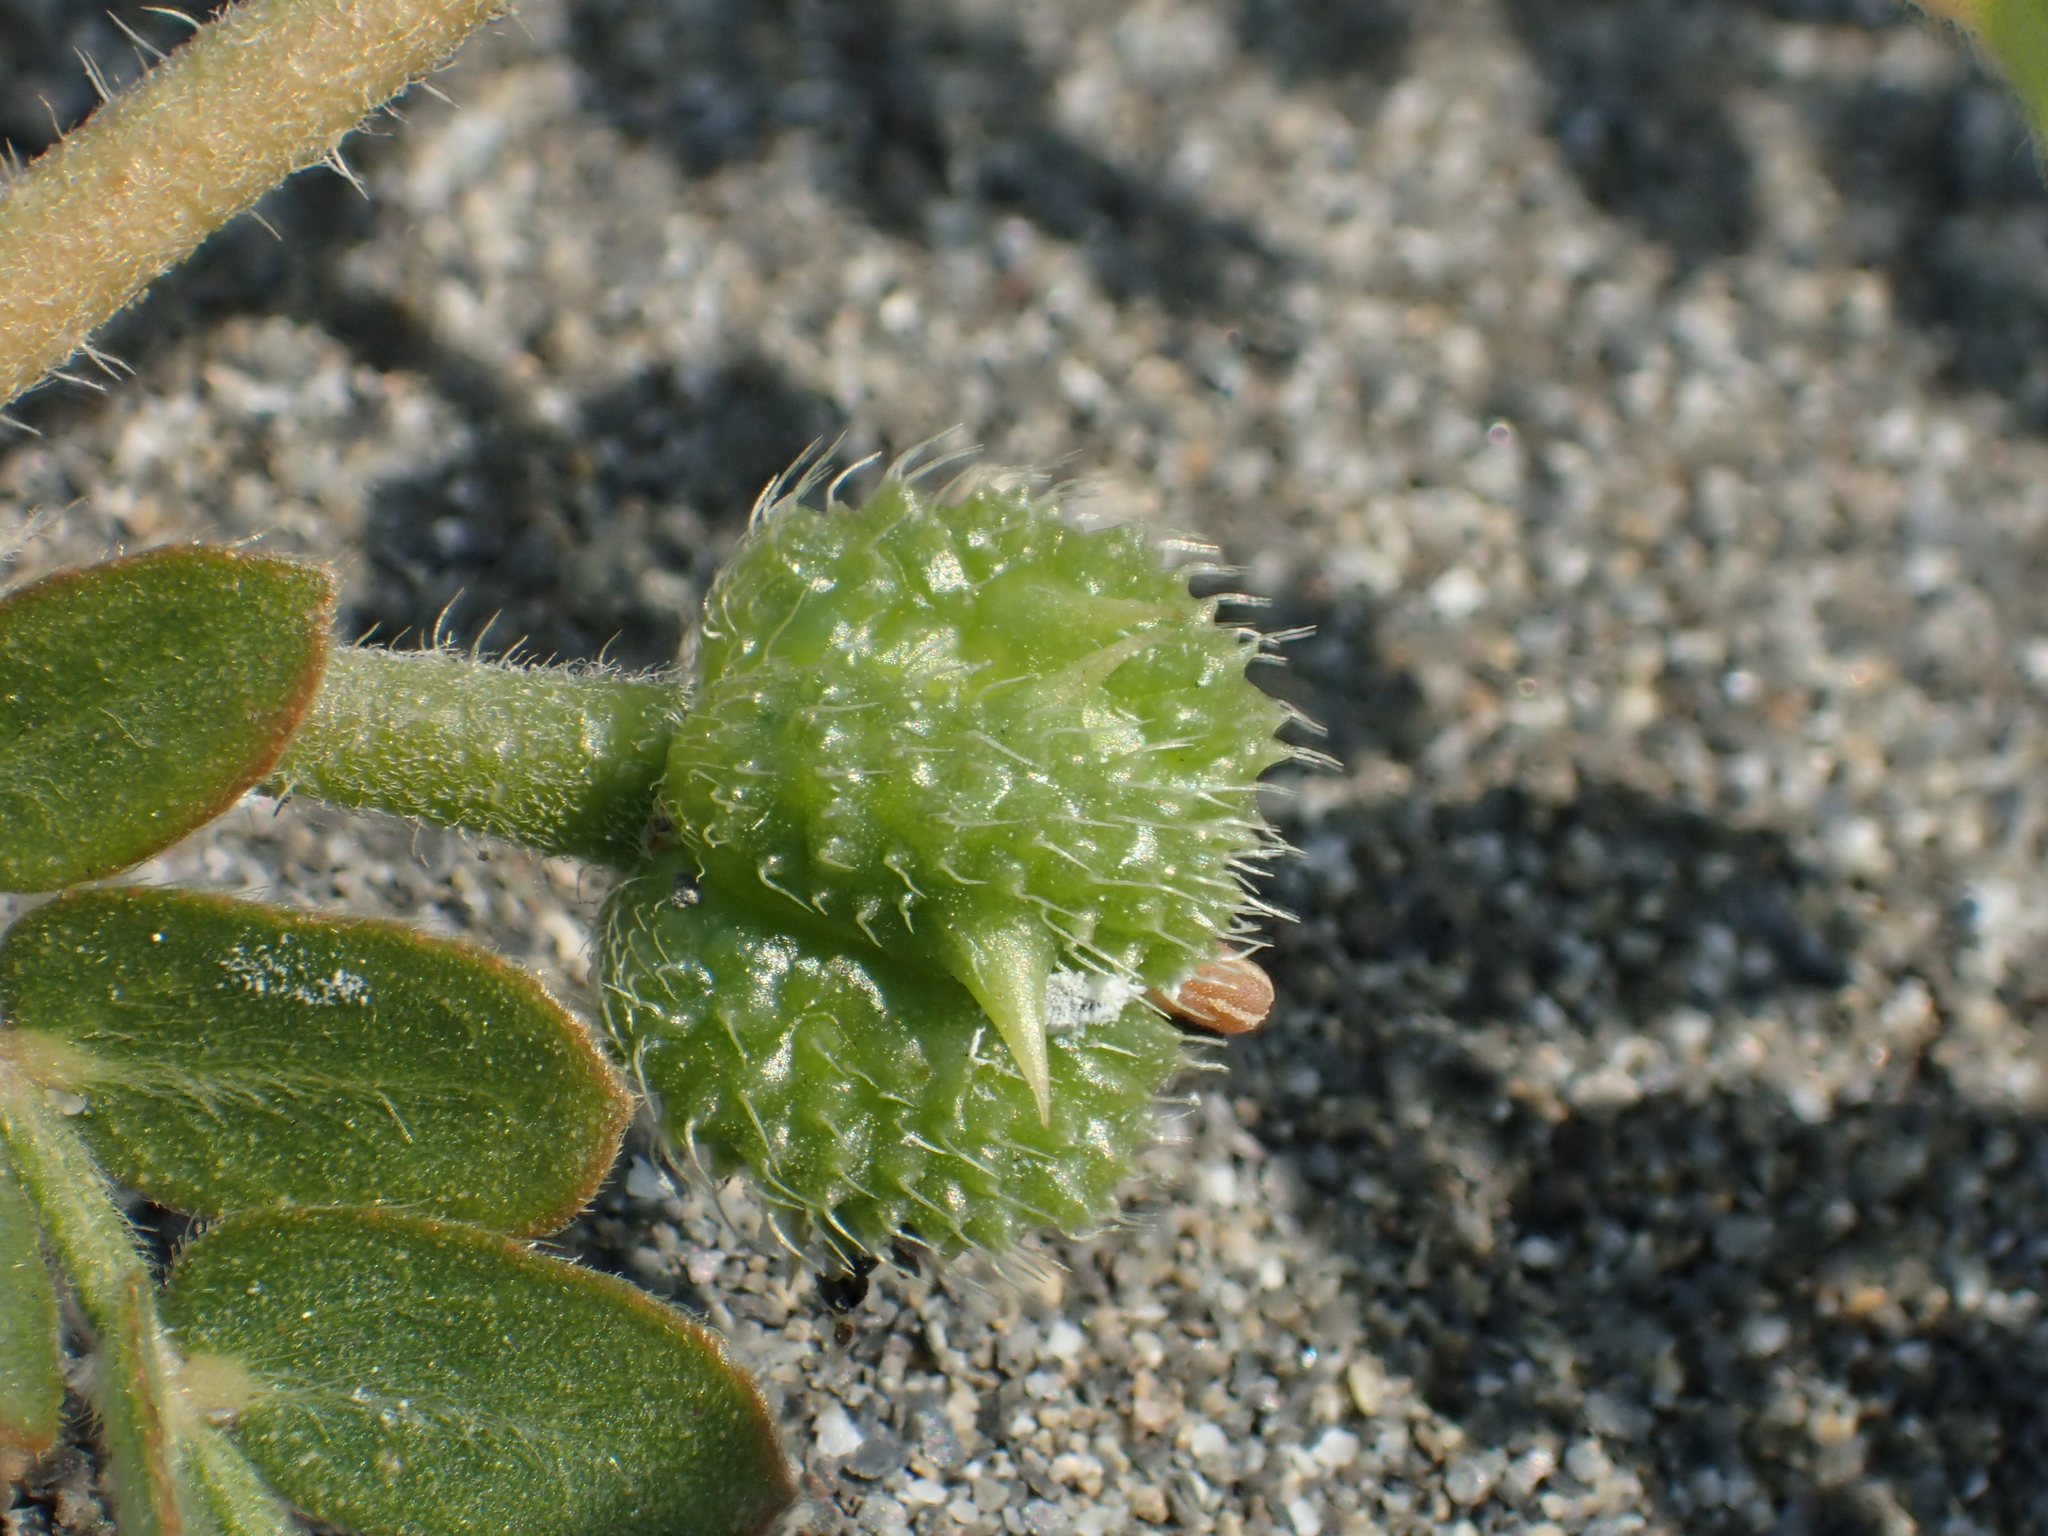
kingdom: Plantae
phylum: Tracheophyta
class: Magnoliopsida
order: Zygophyllales
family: Zygophyllaceae
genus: Tribulus
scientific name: Tribulus cistoides
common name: Jamaican feverplant
